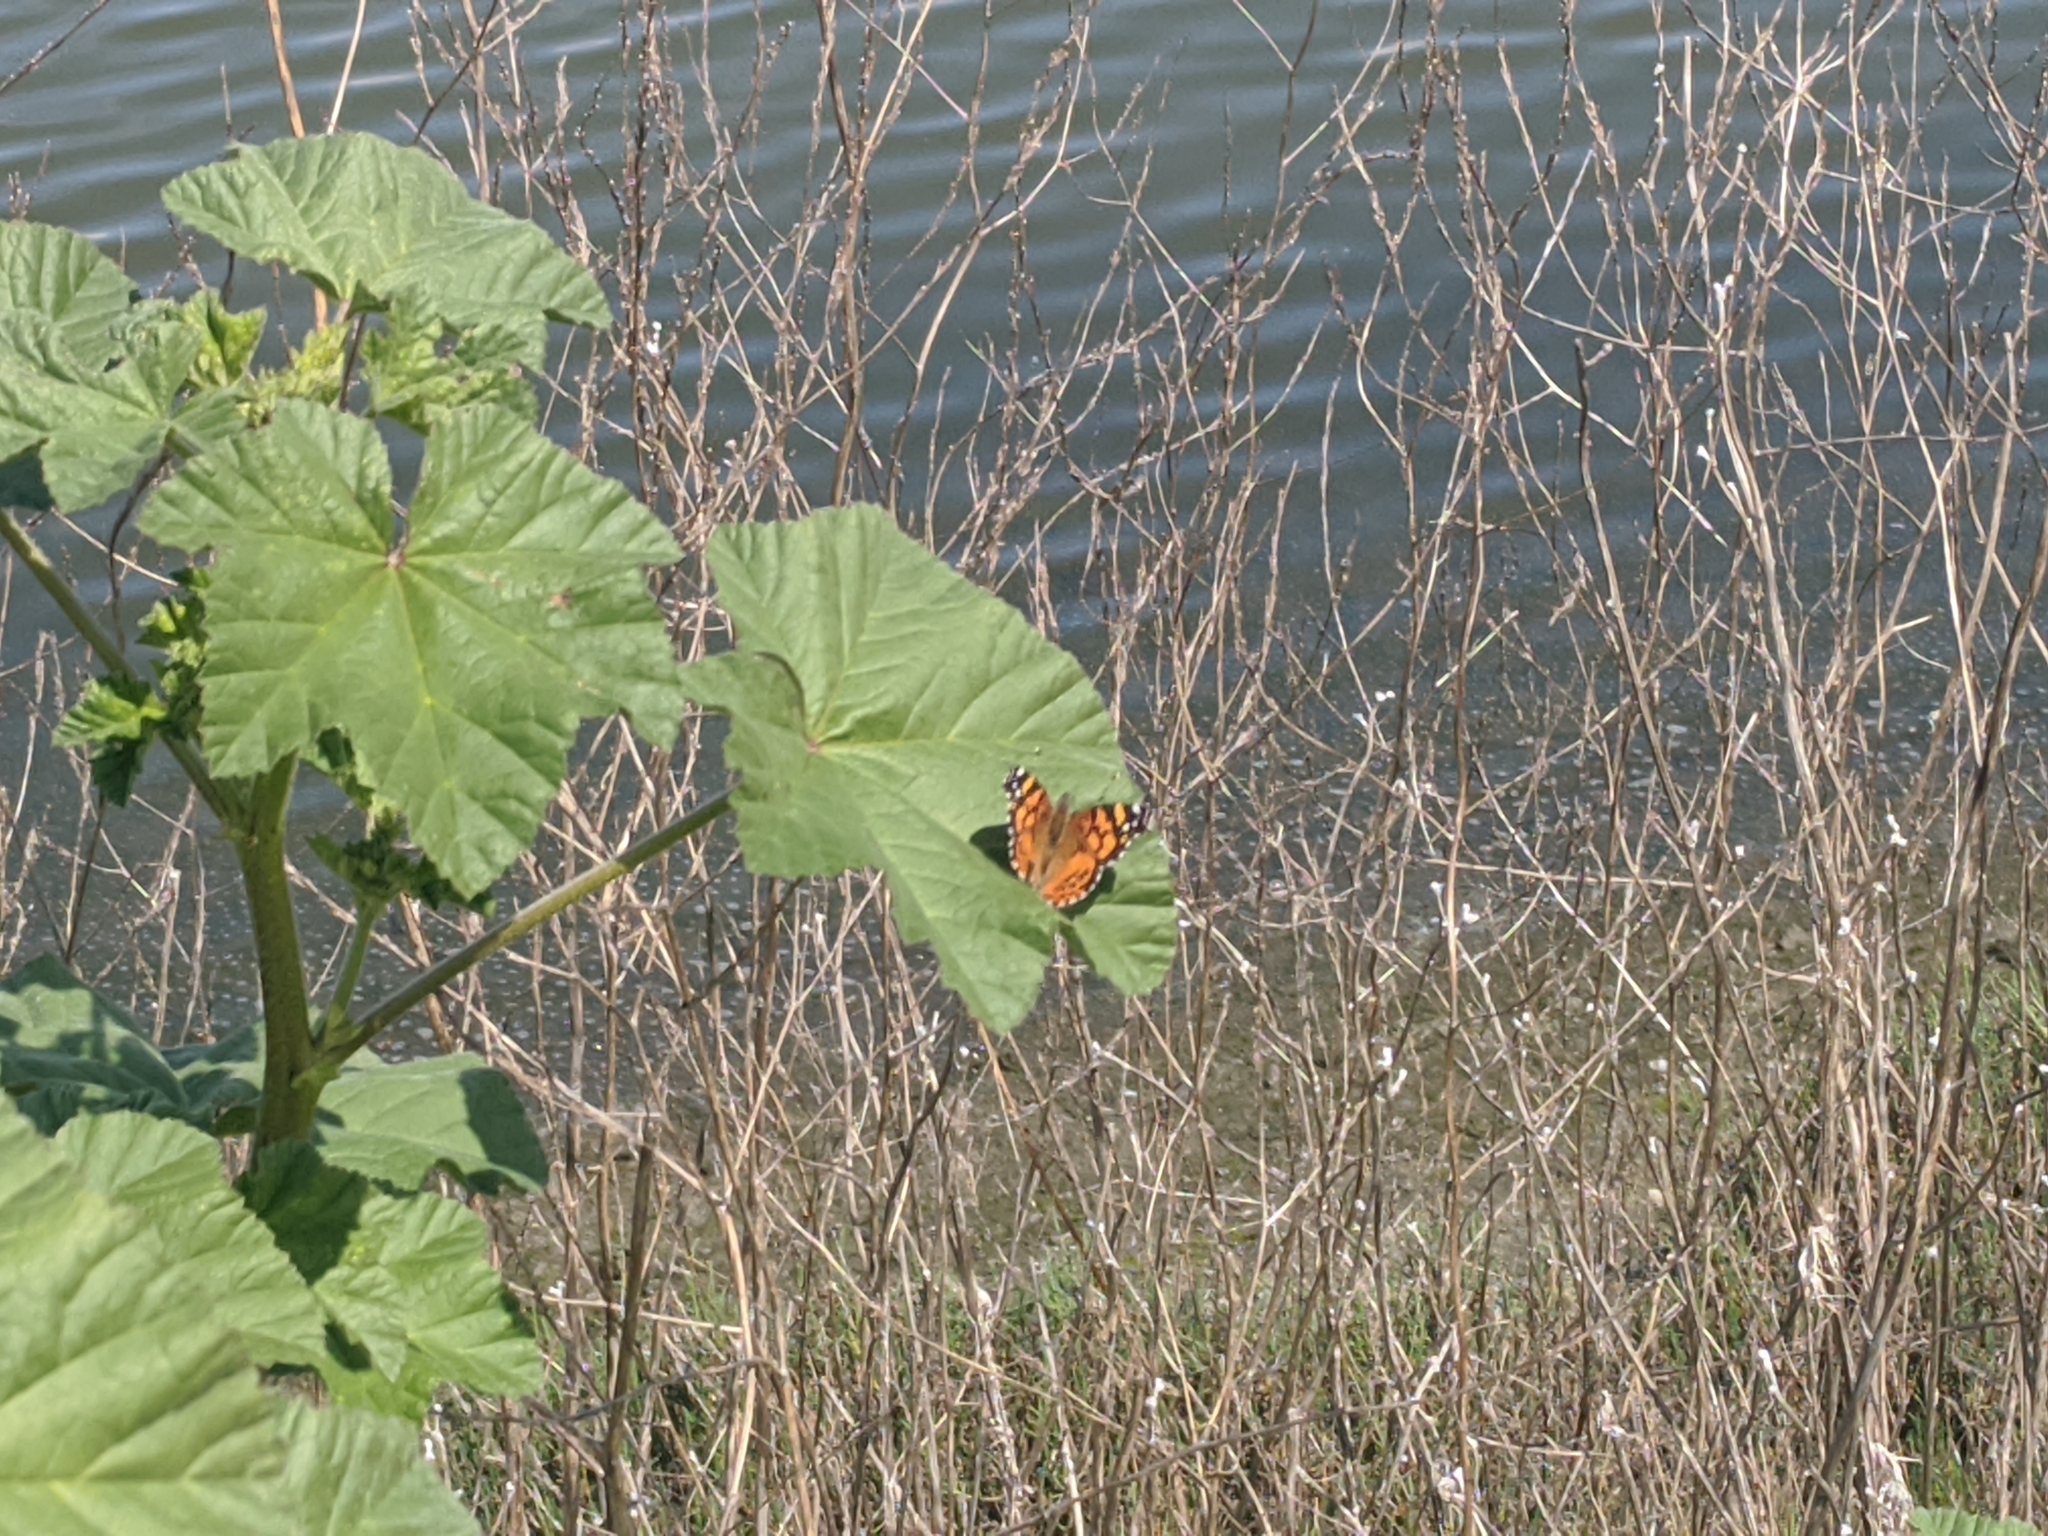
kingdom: Animalia
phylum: Arthropoda
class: Insecta
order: Lepidoptera
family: Nymphalidae
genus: Vanessa
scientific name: Vanessa annabella
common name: West coast lady
